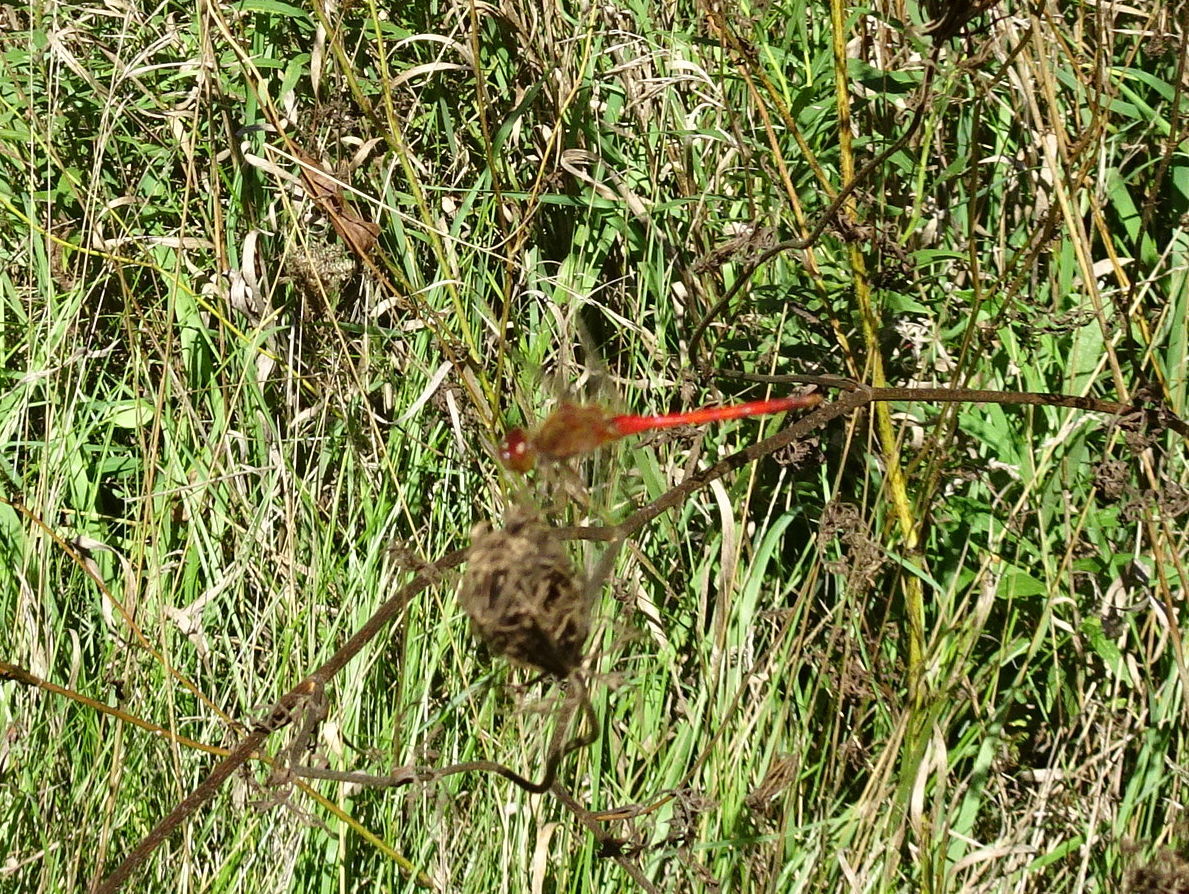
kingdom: Animalia
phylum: Arthropoda
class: Insecta
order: Odonata
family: Libellulidae
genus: Sympetrum
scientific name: Sympetrum vicinum
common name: Autumn meadowhawk
